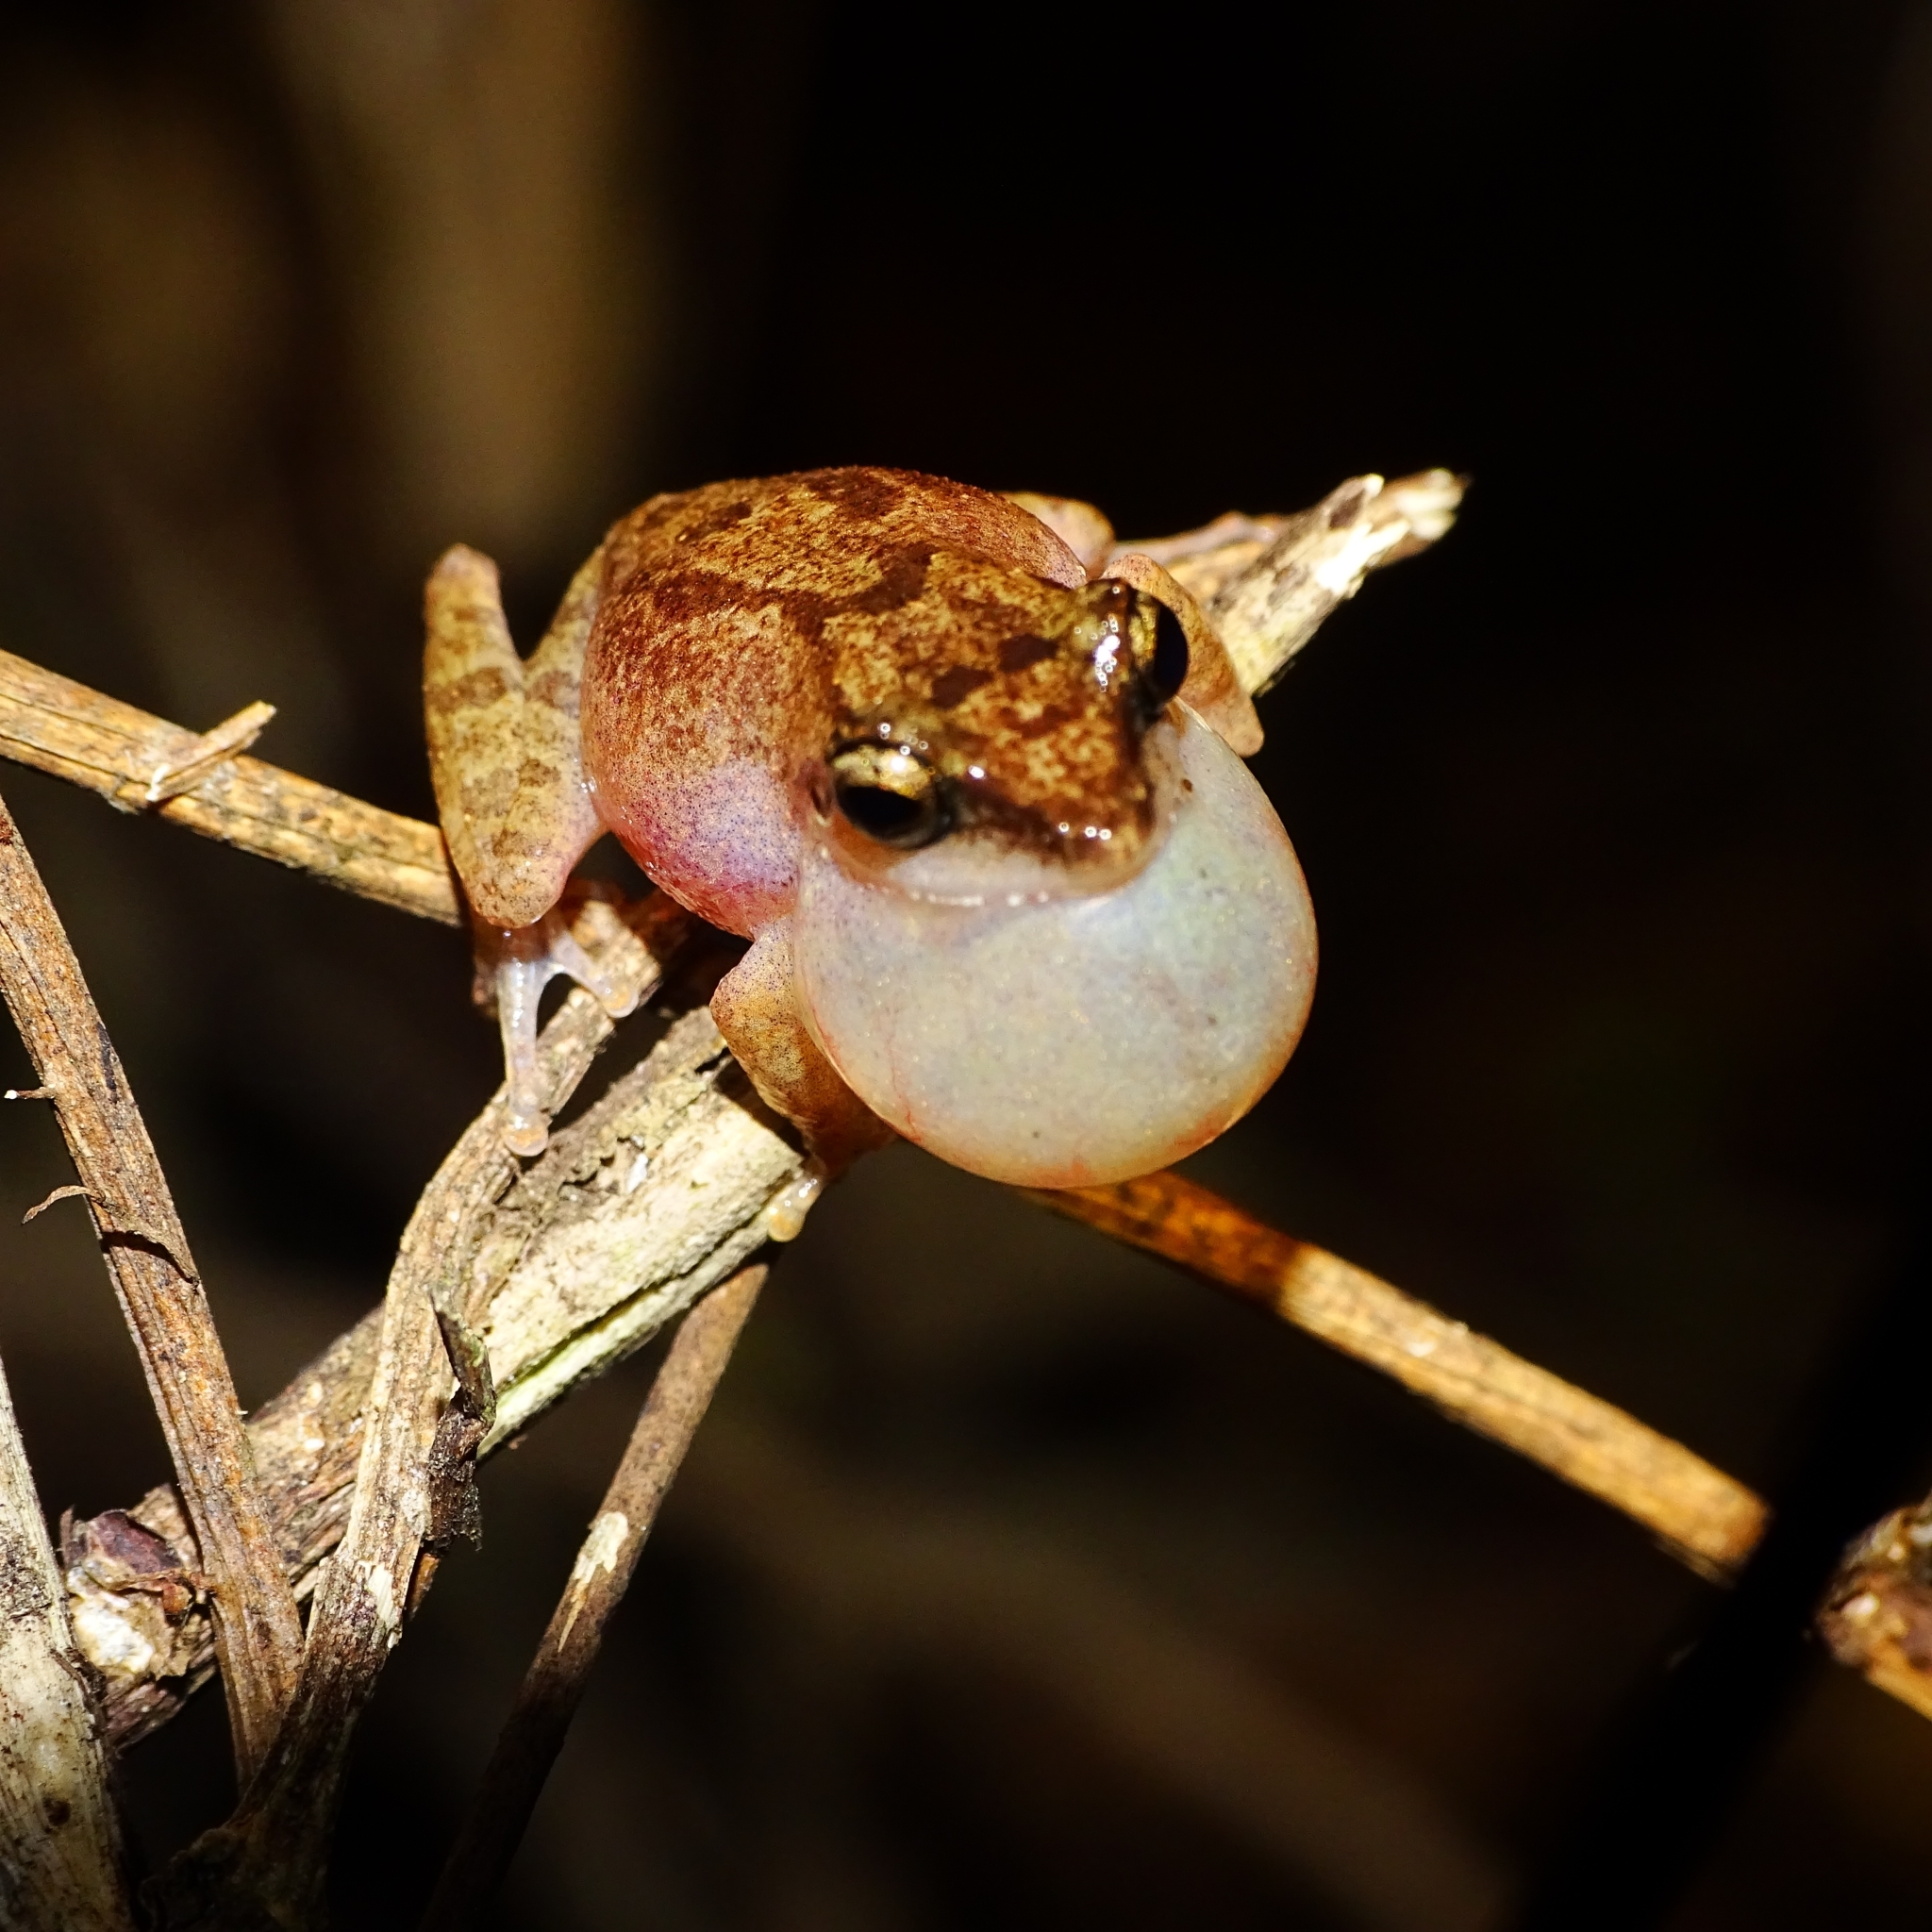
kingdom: Animalia
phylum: Chordata
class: Amphibia
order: Anura
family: Rhacophoridae
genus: Pseudophilautus
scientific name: Pseudophilautus wynaadensis
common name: Dark-eared bush frog
